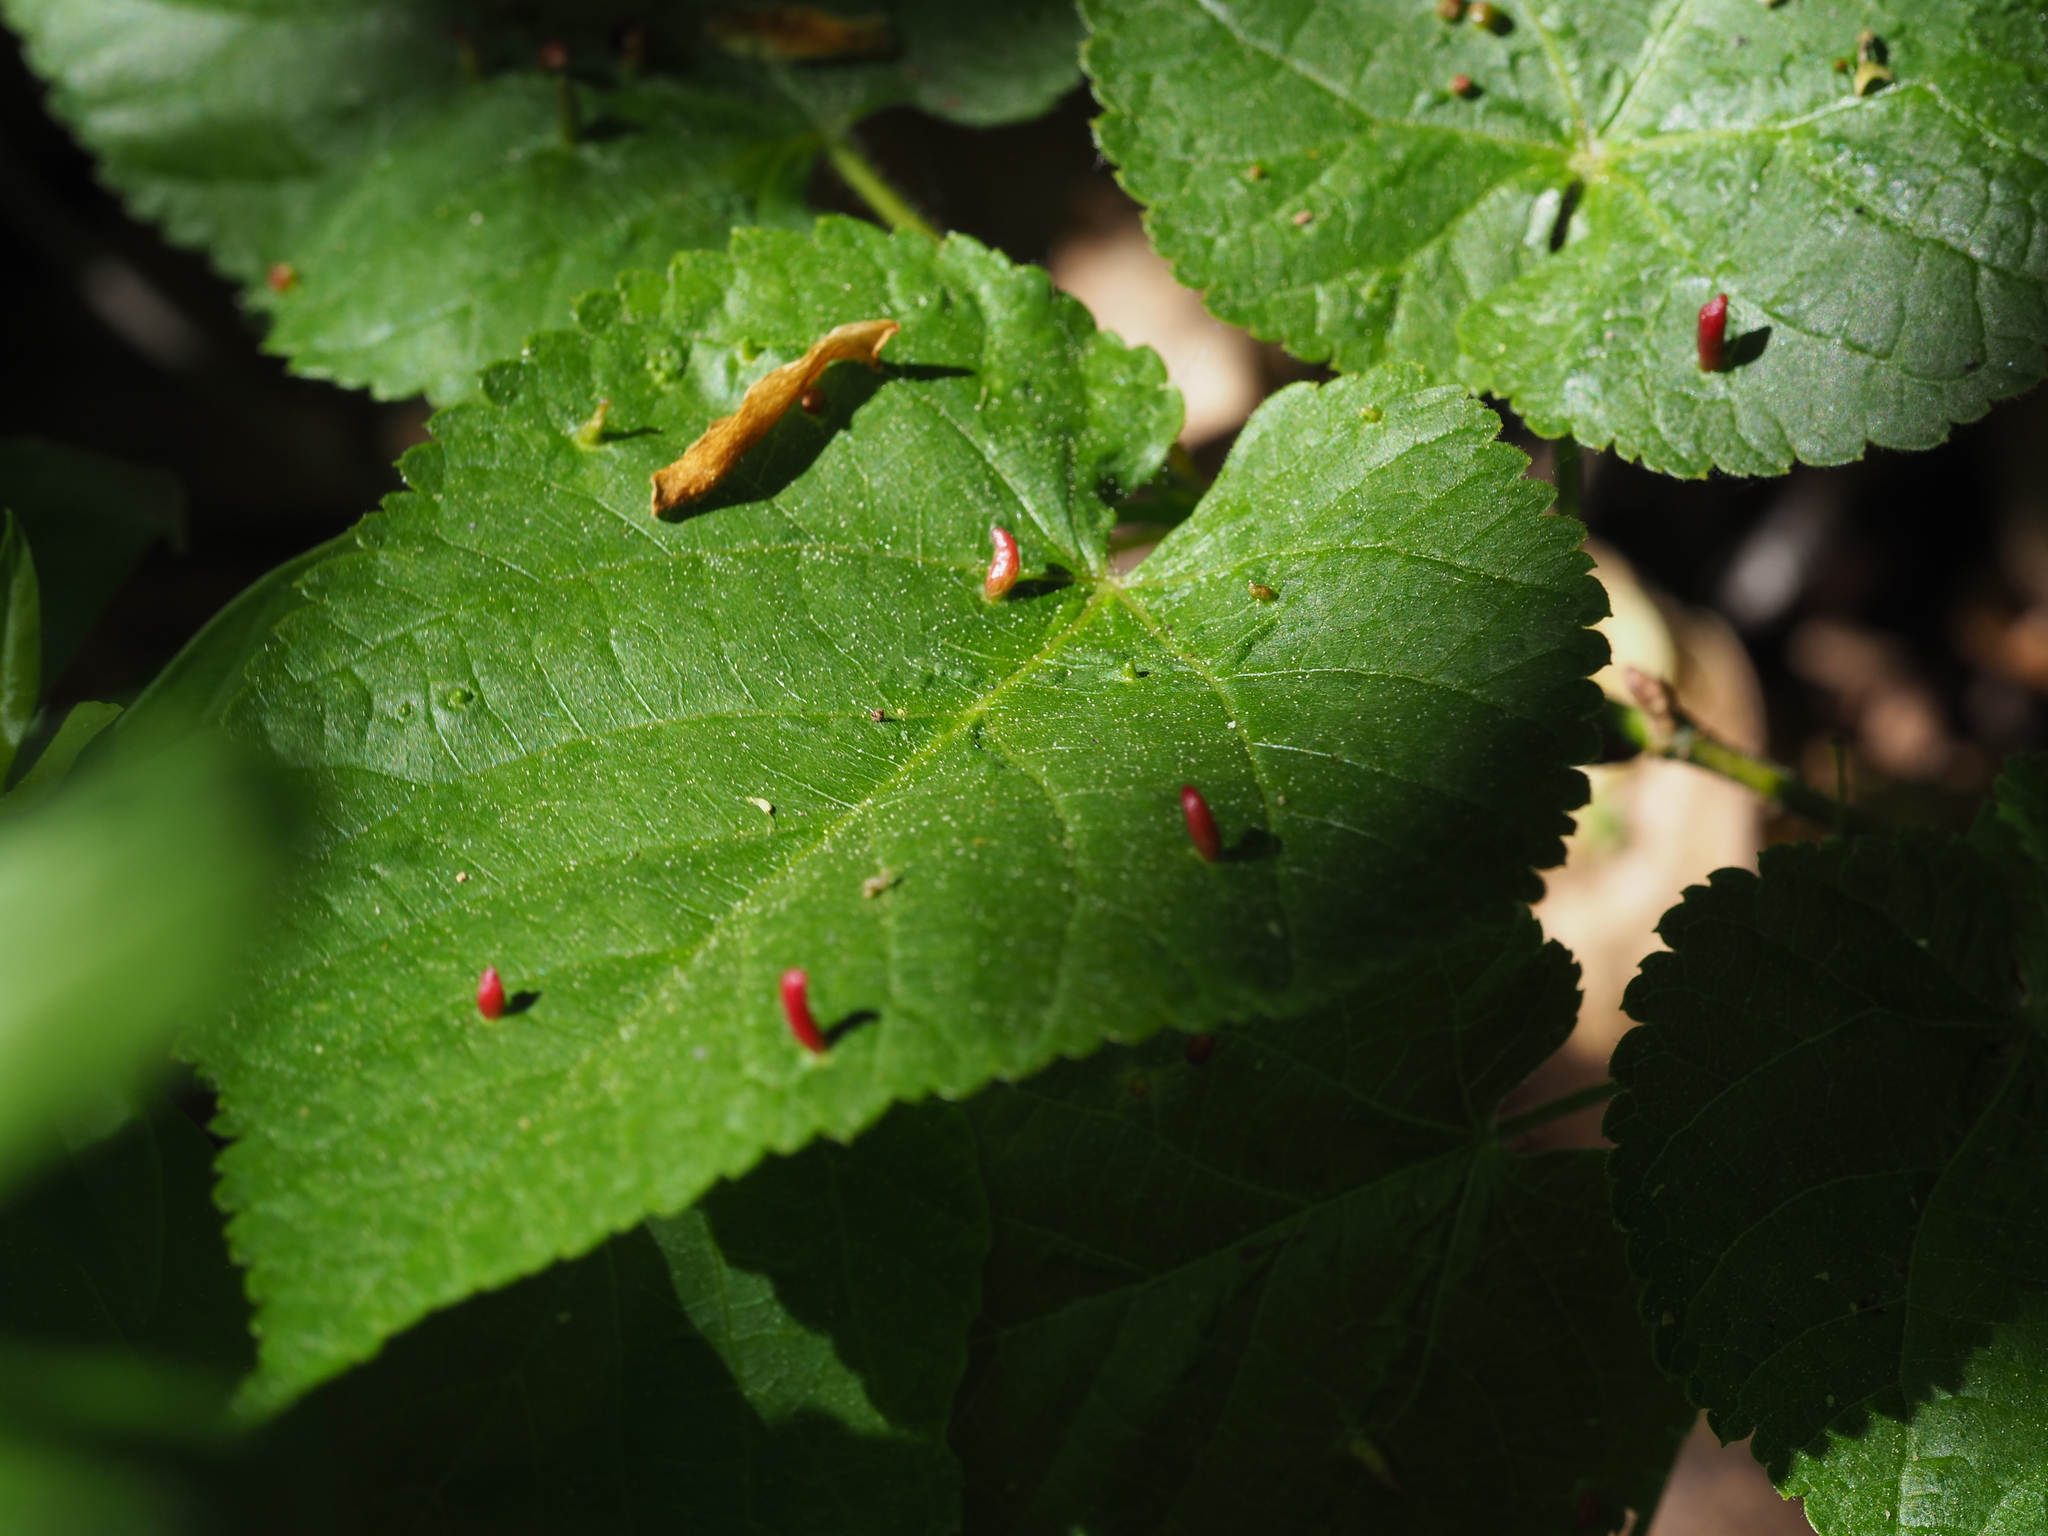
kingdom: Animalia
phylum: Arthropoda
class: Arachnida
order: Trombidiformes
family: Eriophyidae
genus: Eriophyes
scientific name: Eriophyes tiliae
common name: Red nail gall mite
